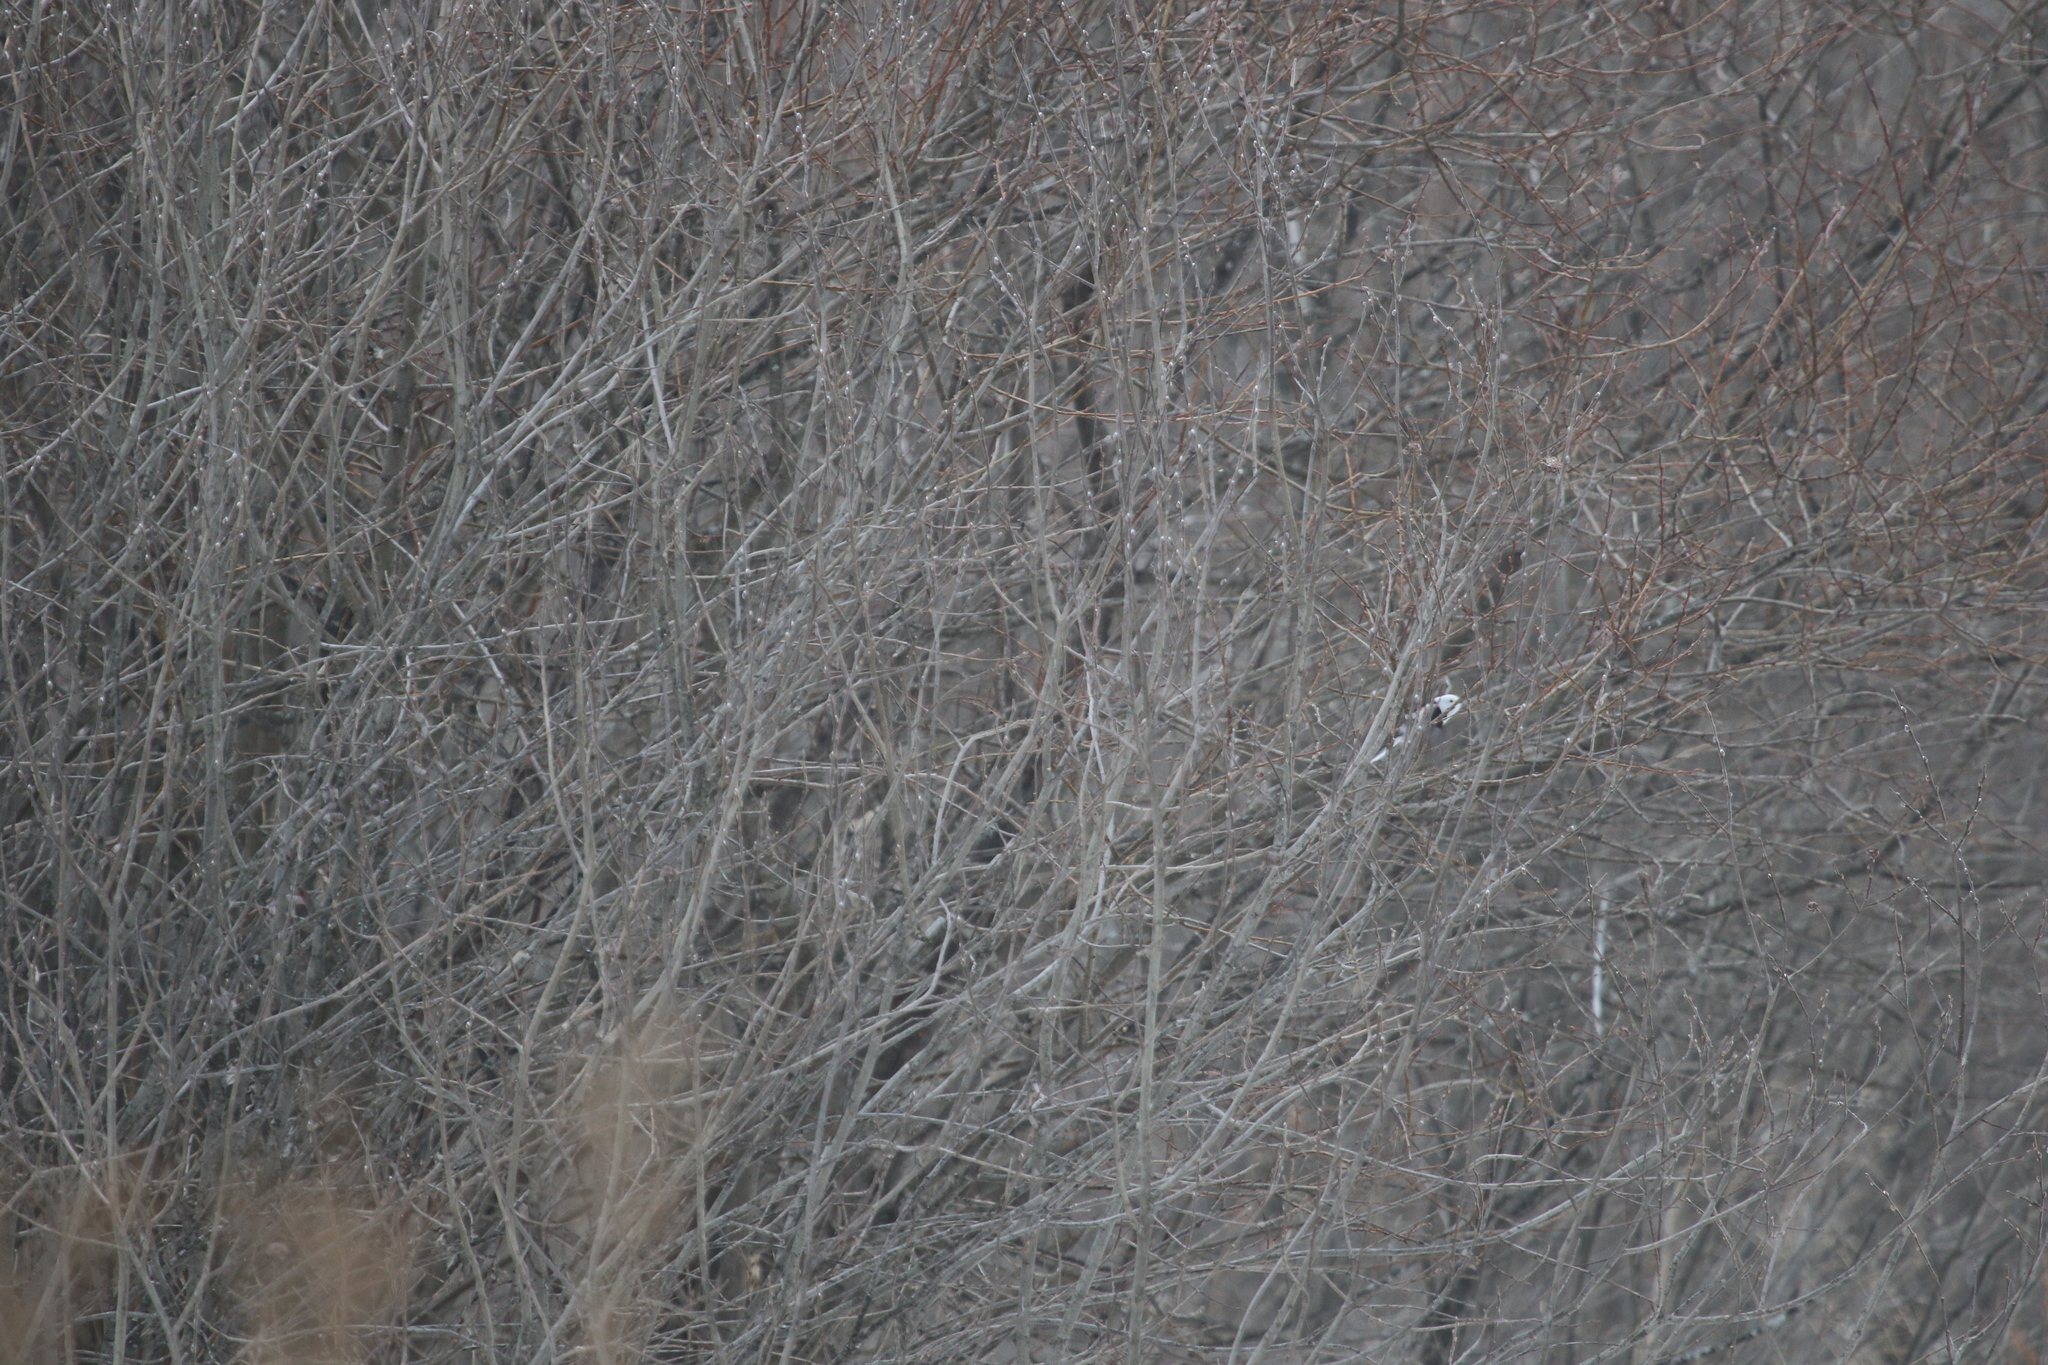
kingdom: Animalia
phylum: Chordata
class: Aves
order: Passeriformes
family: Aegithalidae
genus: Aegithalos
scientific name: Aegithalos caudatus
